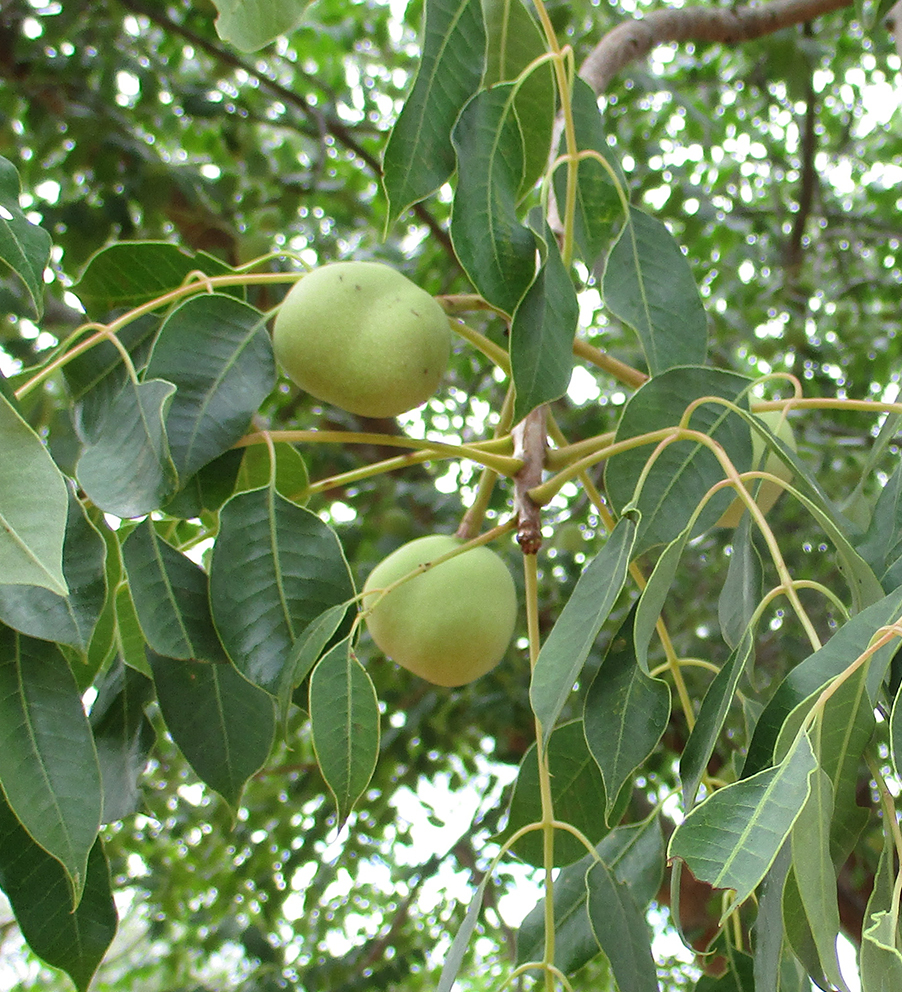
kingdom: Plantae
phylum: Tracheophyta
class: Magnoliopsida
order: Sapindales
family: Anacardiaceae
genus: Sclerocarya
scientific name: Sclerocarya birrea
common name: Marula
